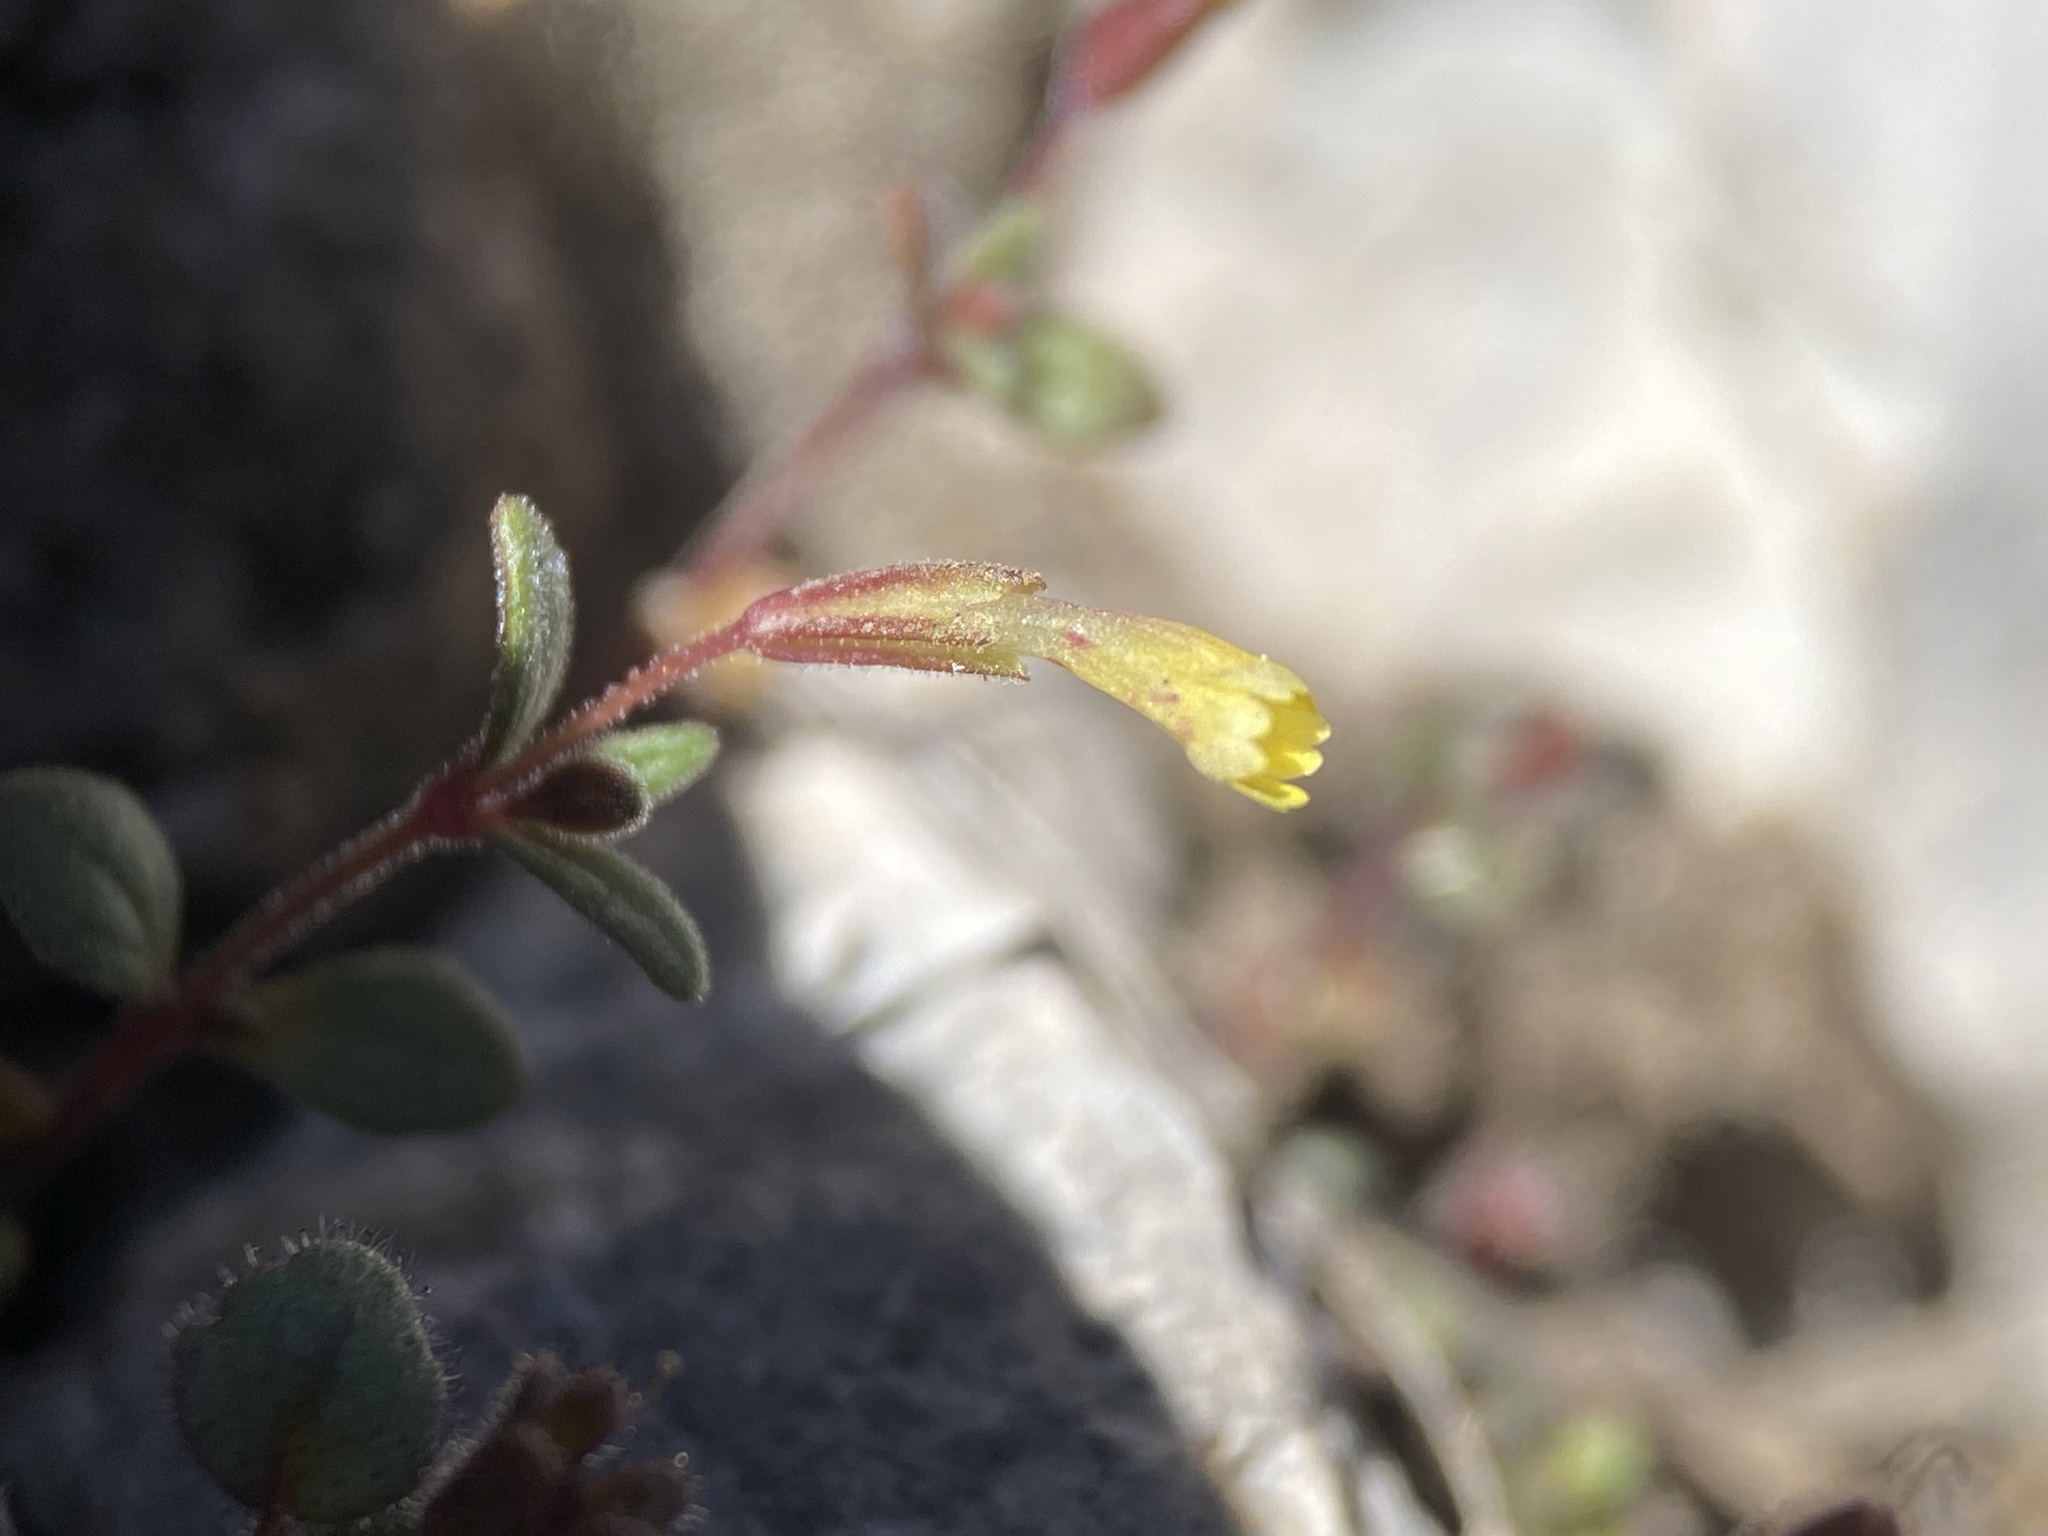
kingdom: Plantae
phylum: Tracheophyta
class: Magnoliopsida
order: Lamiales
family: Phrymaceae
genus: Erythranthe
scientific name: Erythranthe rubella
